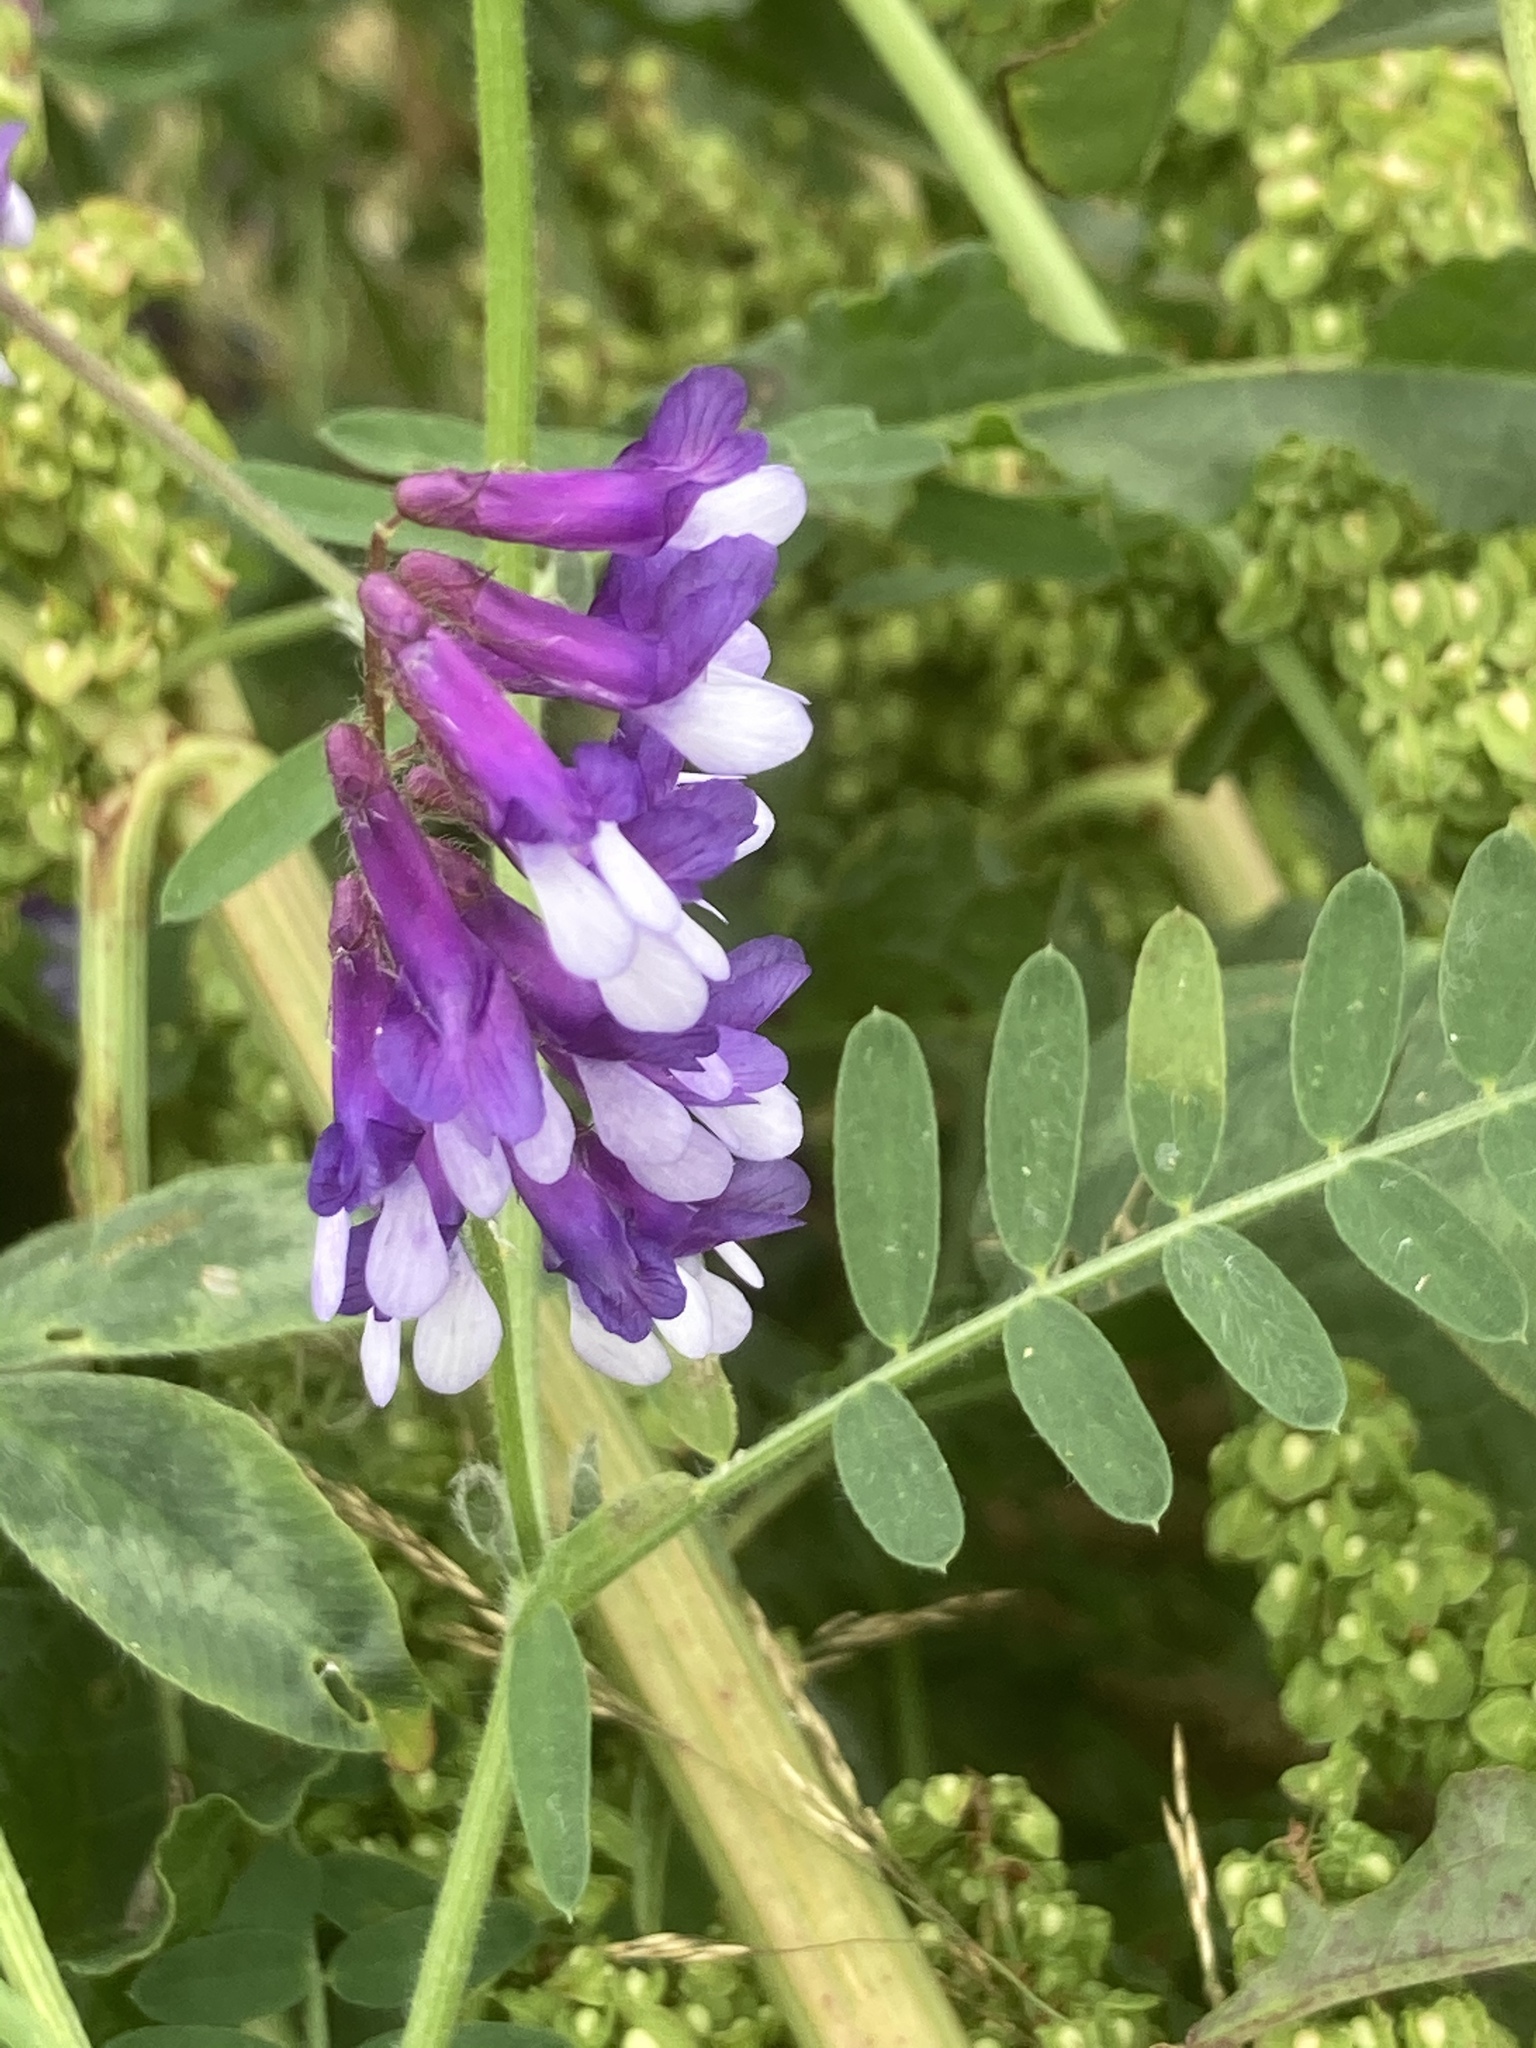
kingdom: Plantae
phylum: Tracheophyta
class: Magnoliopsida
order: Fabales
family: Fabaceae
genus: Vicia
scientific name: Vicia villosa
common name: Fodder vetch
